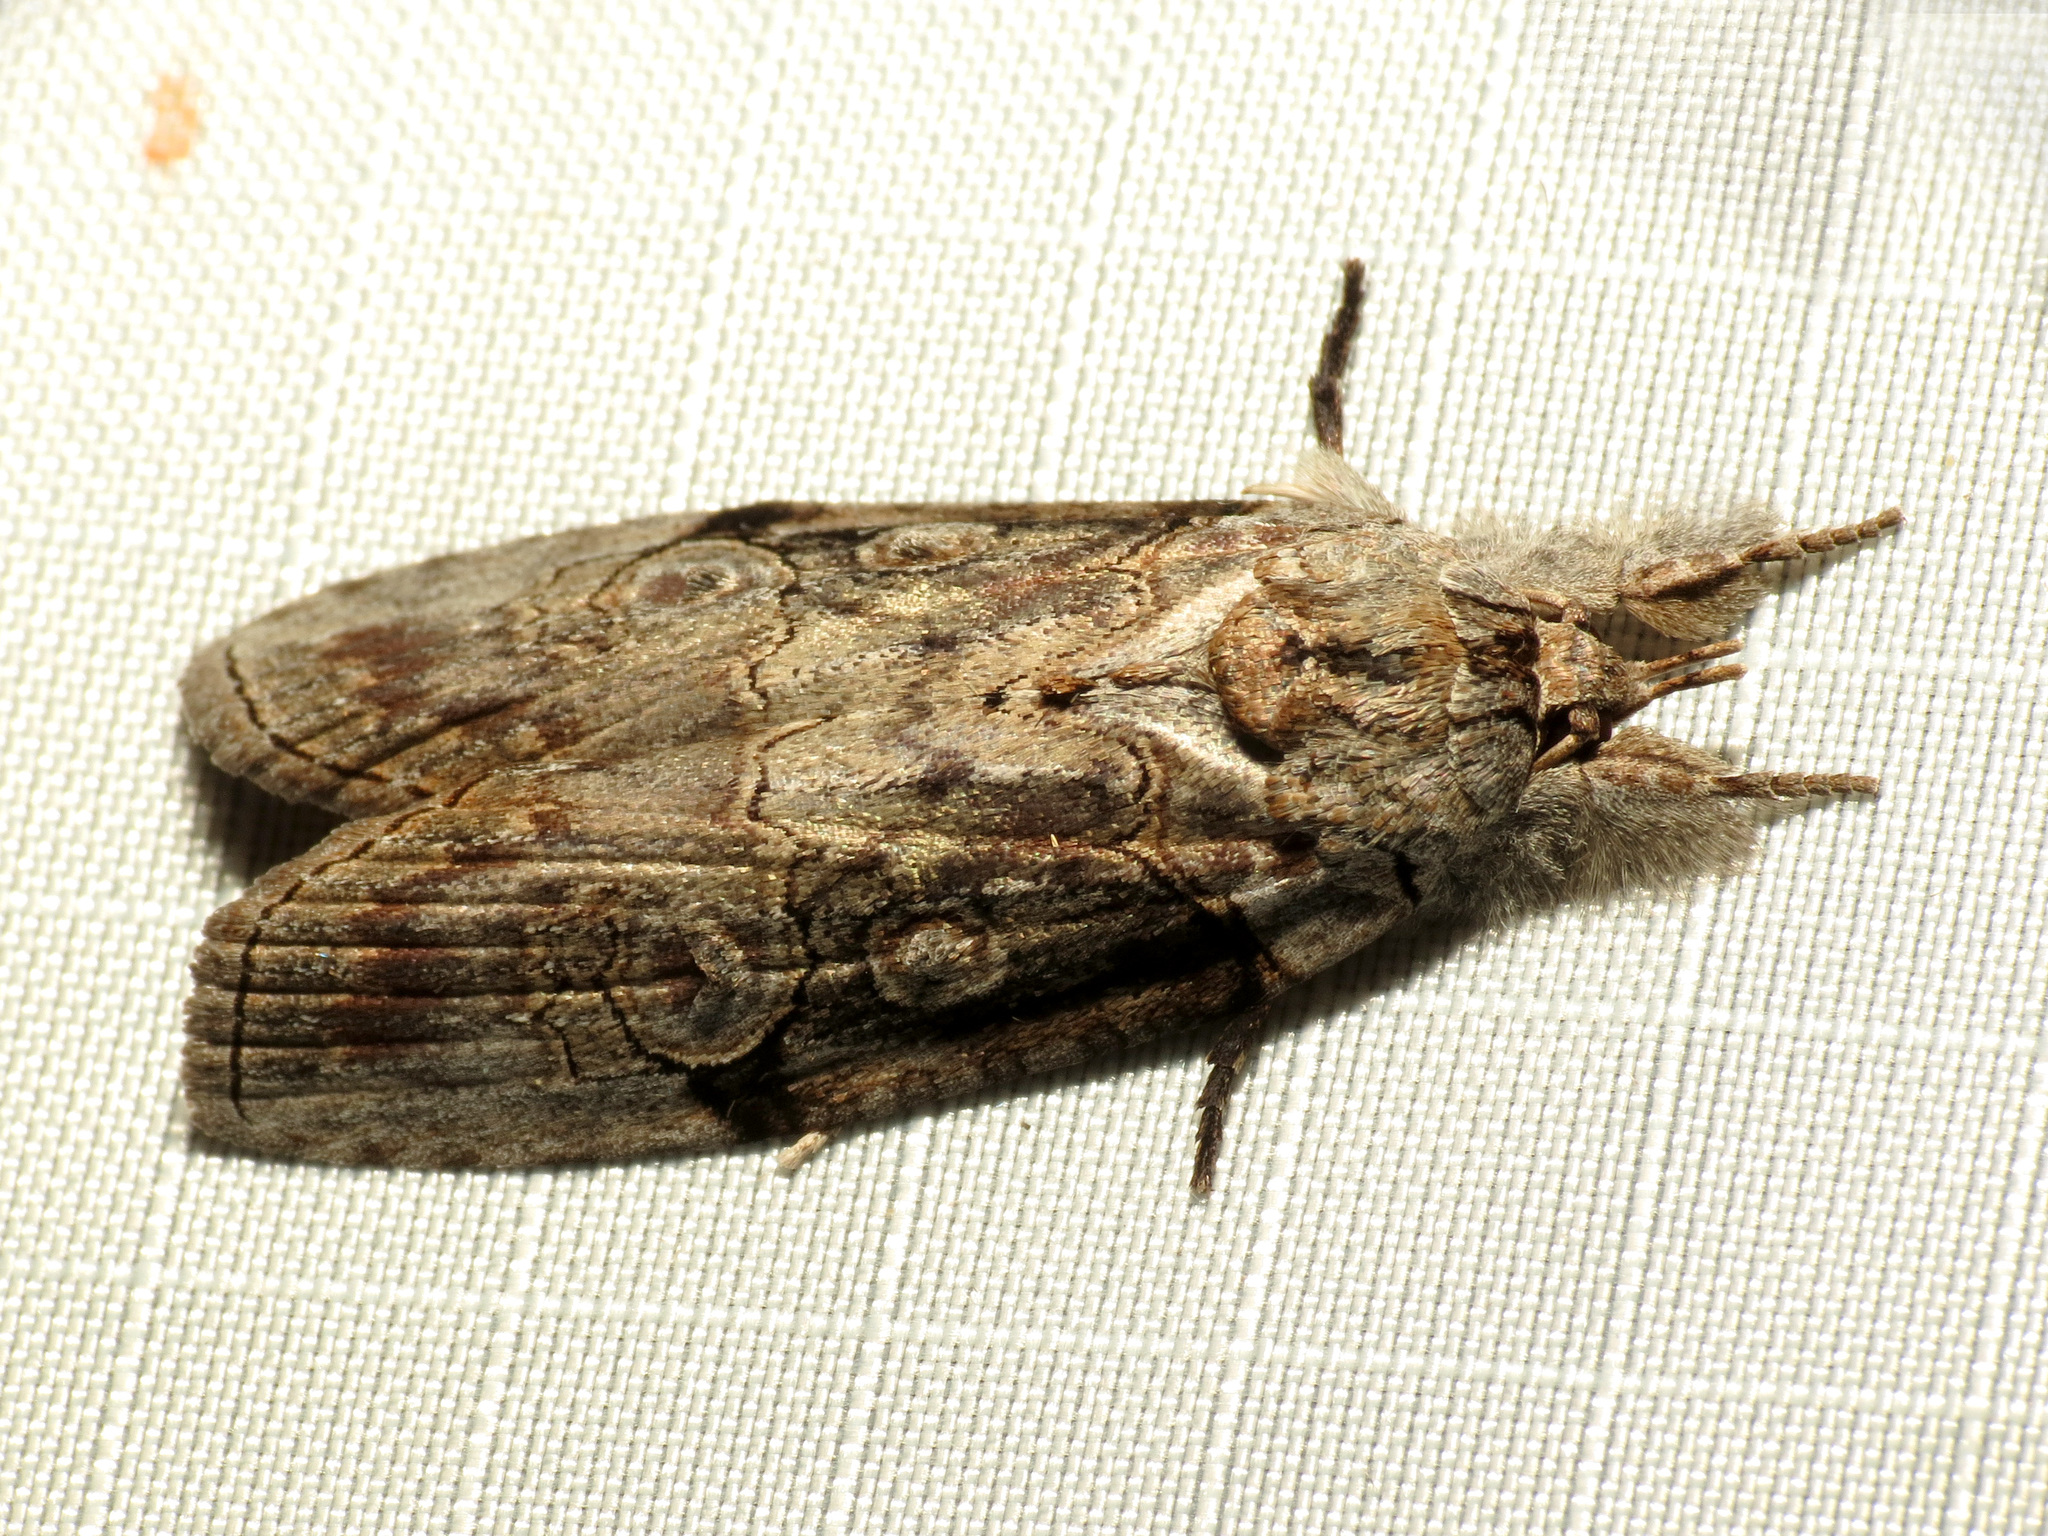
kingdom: Animalia
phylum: Arthropoda
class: Insecta
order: Lepidoptera
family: Nolidae
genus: Iscadia
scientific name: Iscadia aperta
